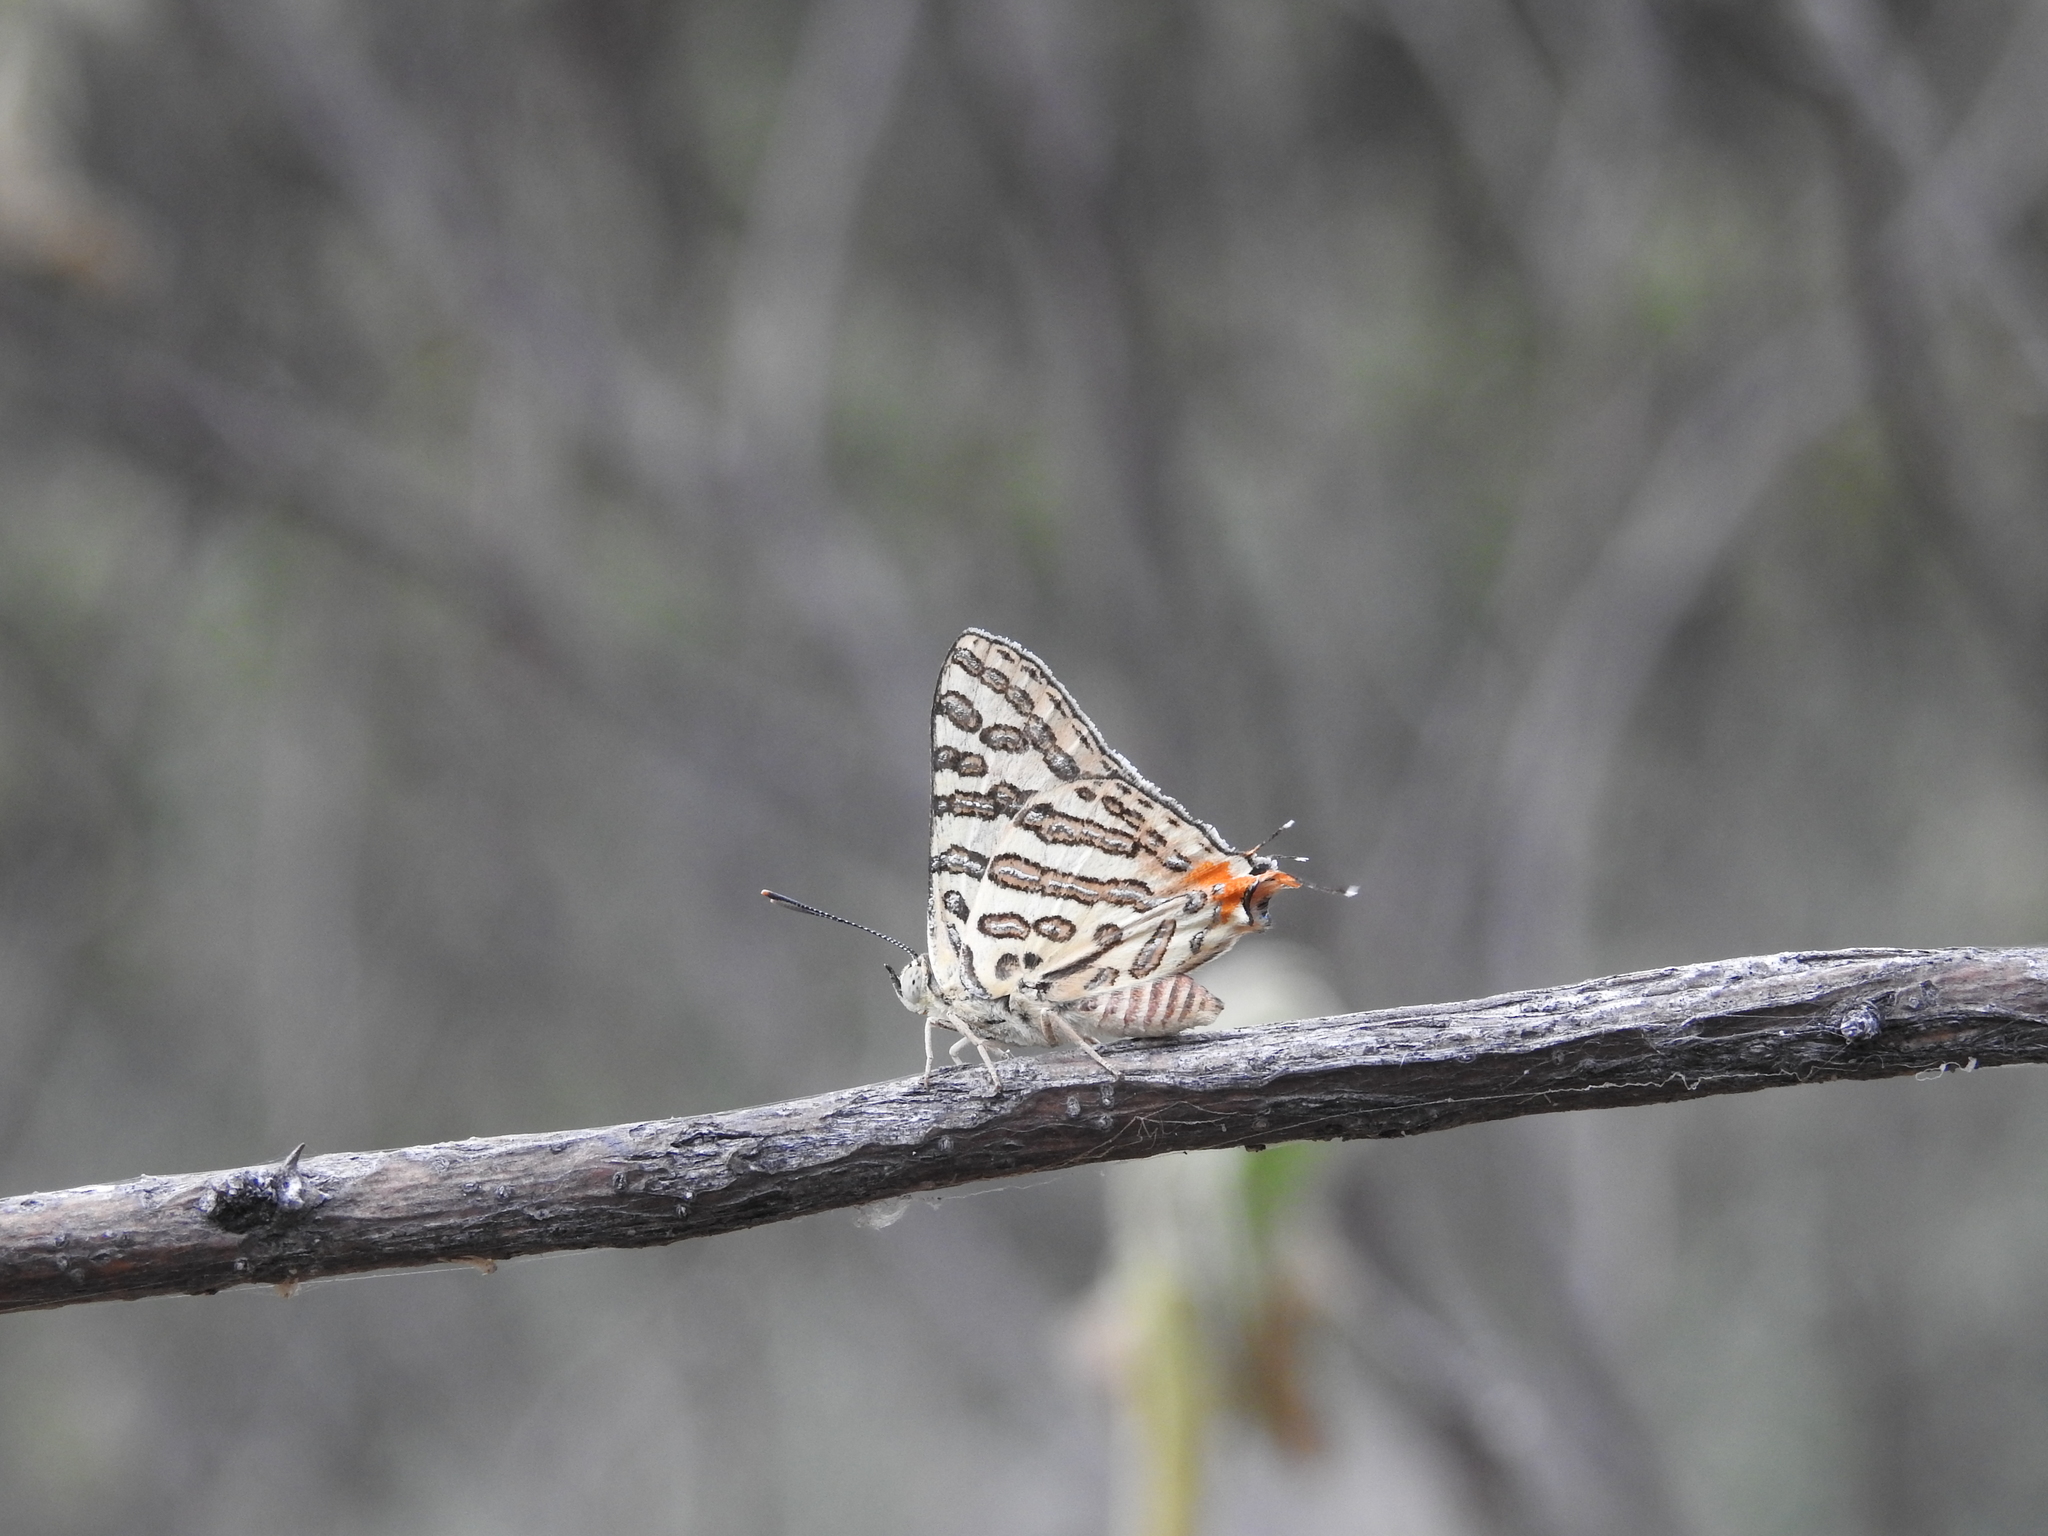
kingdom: Animalia
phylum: Arthropoda
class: Insecta
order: Lepidoptera
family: Lycaenidae
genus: Cigaritis
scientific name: Cigaritis
